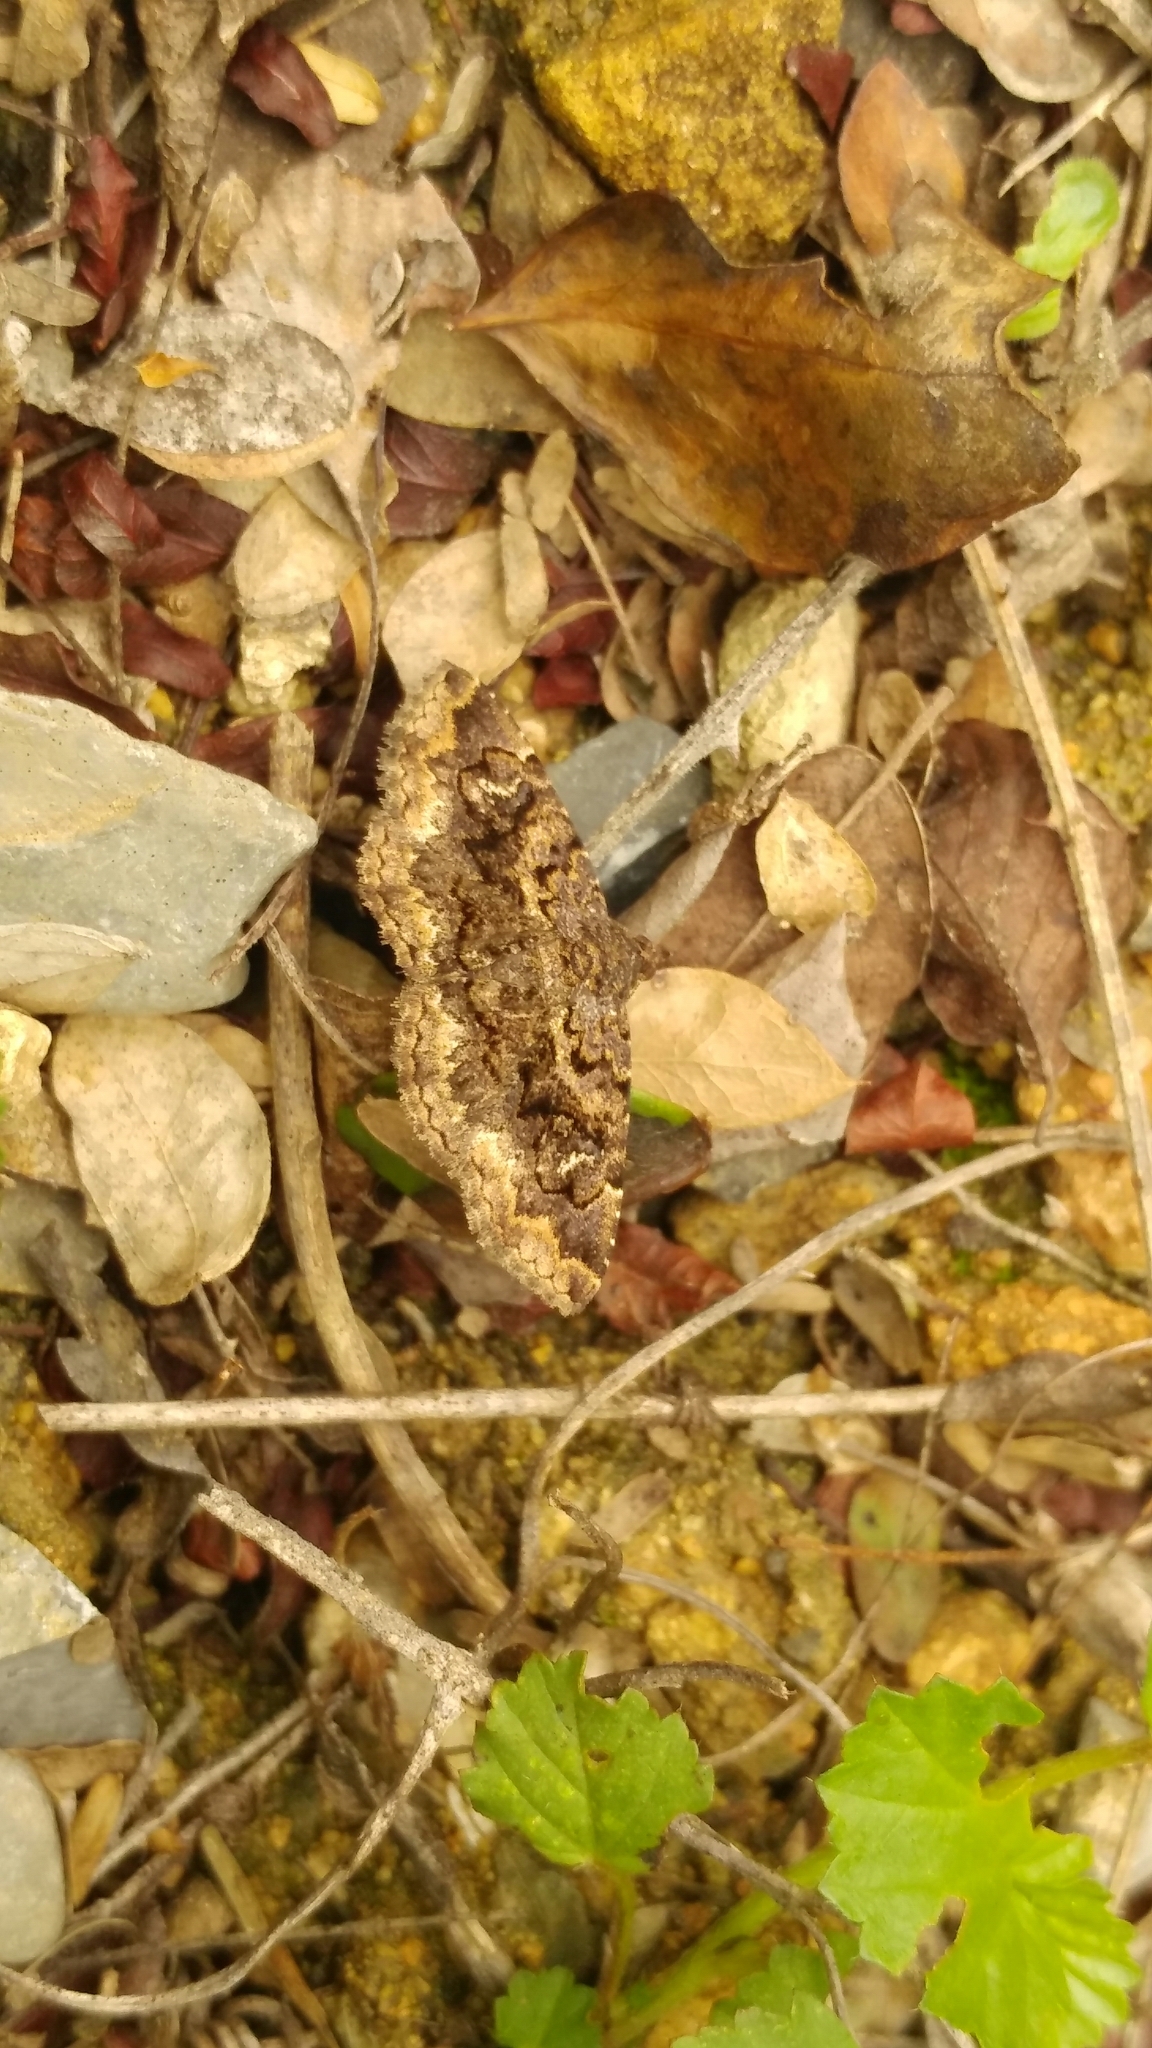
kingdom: Animalia
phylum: Arthropoda
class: Insecta
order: Lepidoptera
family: Erebidae
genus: Toxonprucha
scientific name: Toxonprucha repentis
